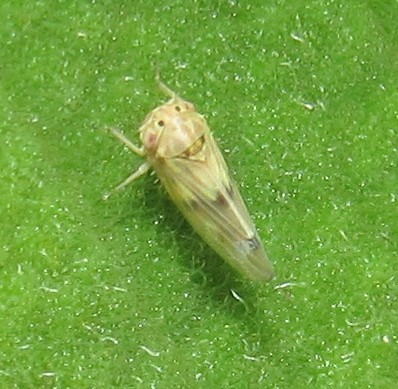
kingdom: Animalia
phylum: Arthropoda
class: Insecta
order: Hemiptera
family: Cicadellidae
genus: Agallia
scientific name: Agallia albidula
